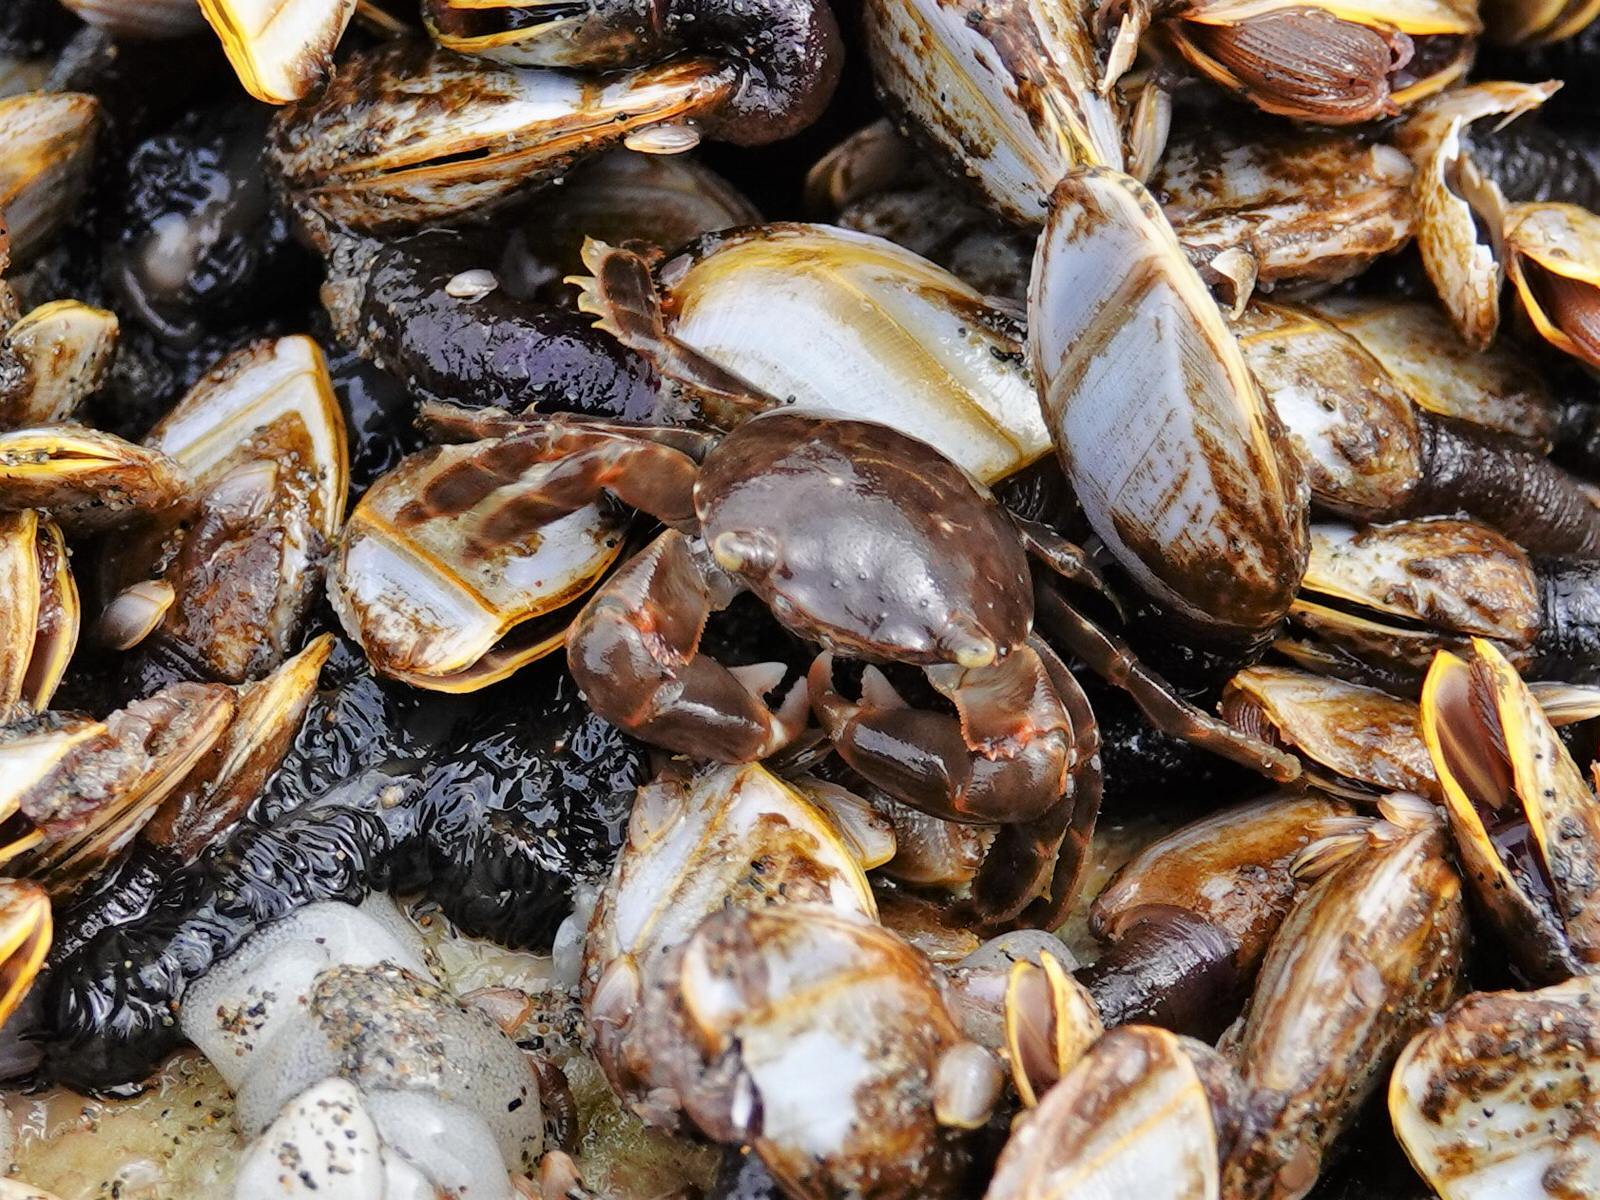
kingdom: Animalia
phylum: Arthropoda
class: Malacostraca
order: Decapoda
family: Grapsidae
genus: Planes
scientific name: Planes minutus
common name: Gulf weed crab
